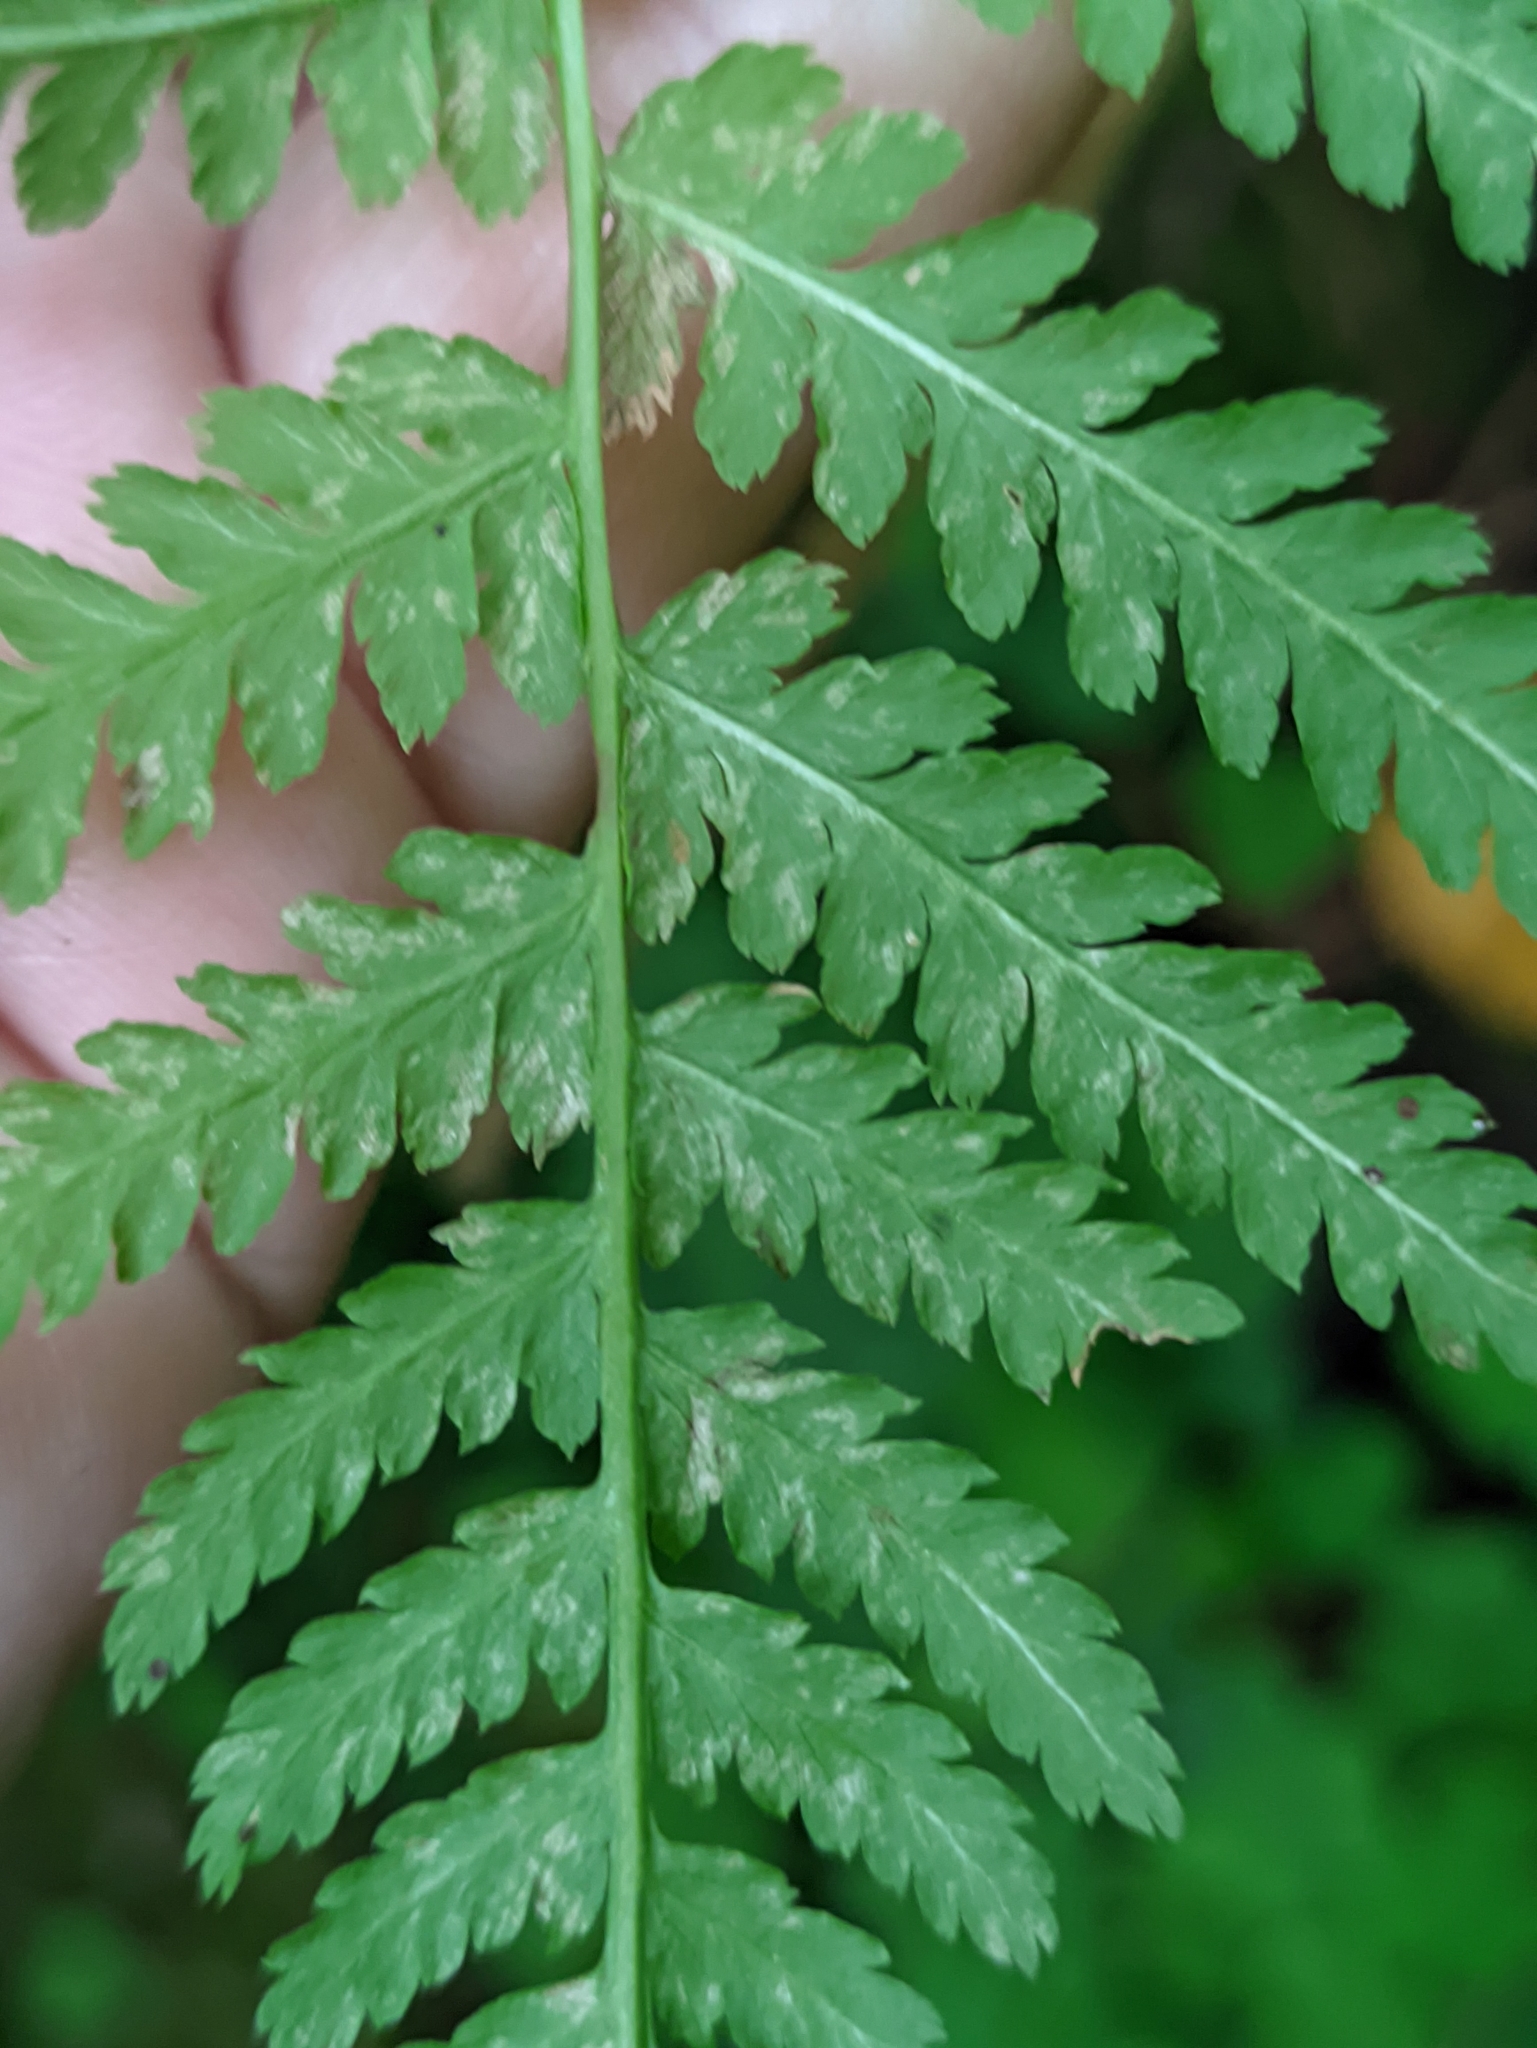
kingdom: Plantae
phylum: Tracheophyta
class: Polypodiopsida
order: Polypodiales
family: Athyriaceae
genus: Athyrium
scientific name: Athyrium filix-femina
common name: Lady fern
